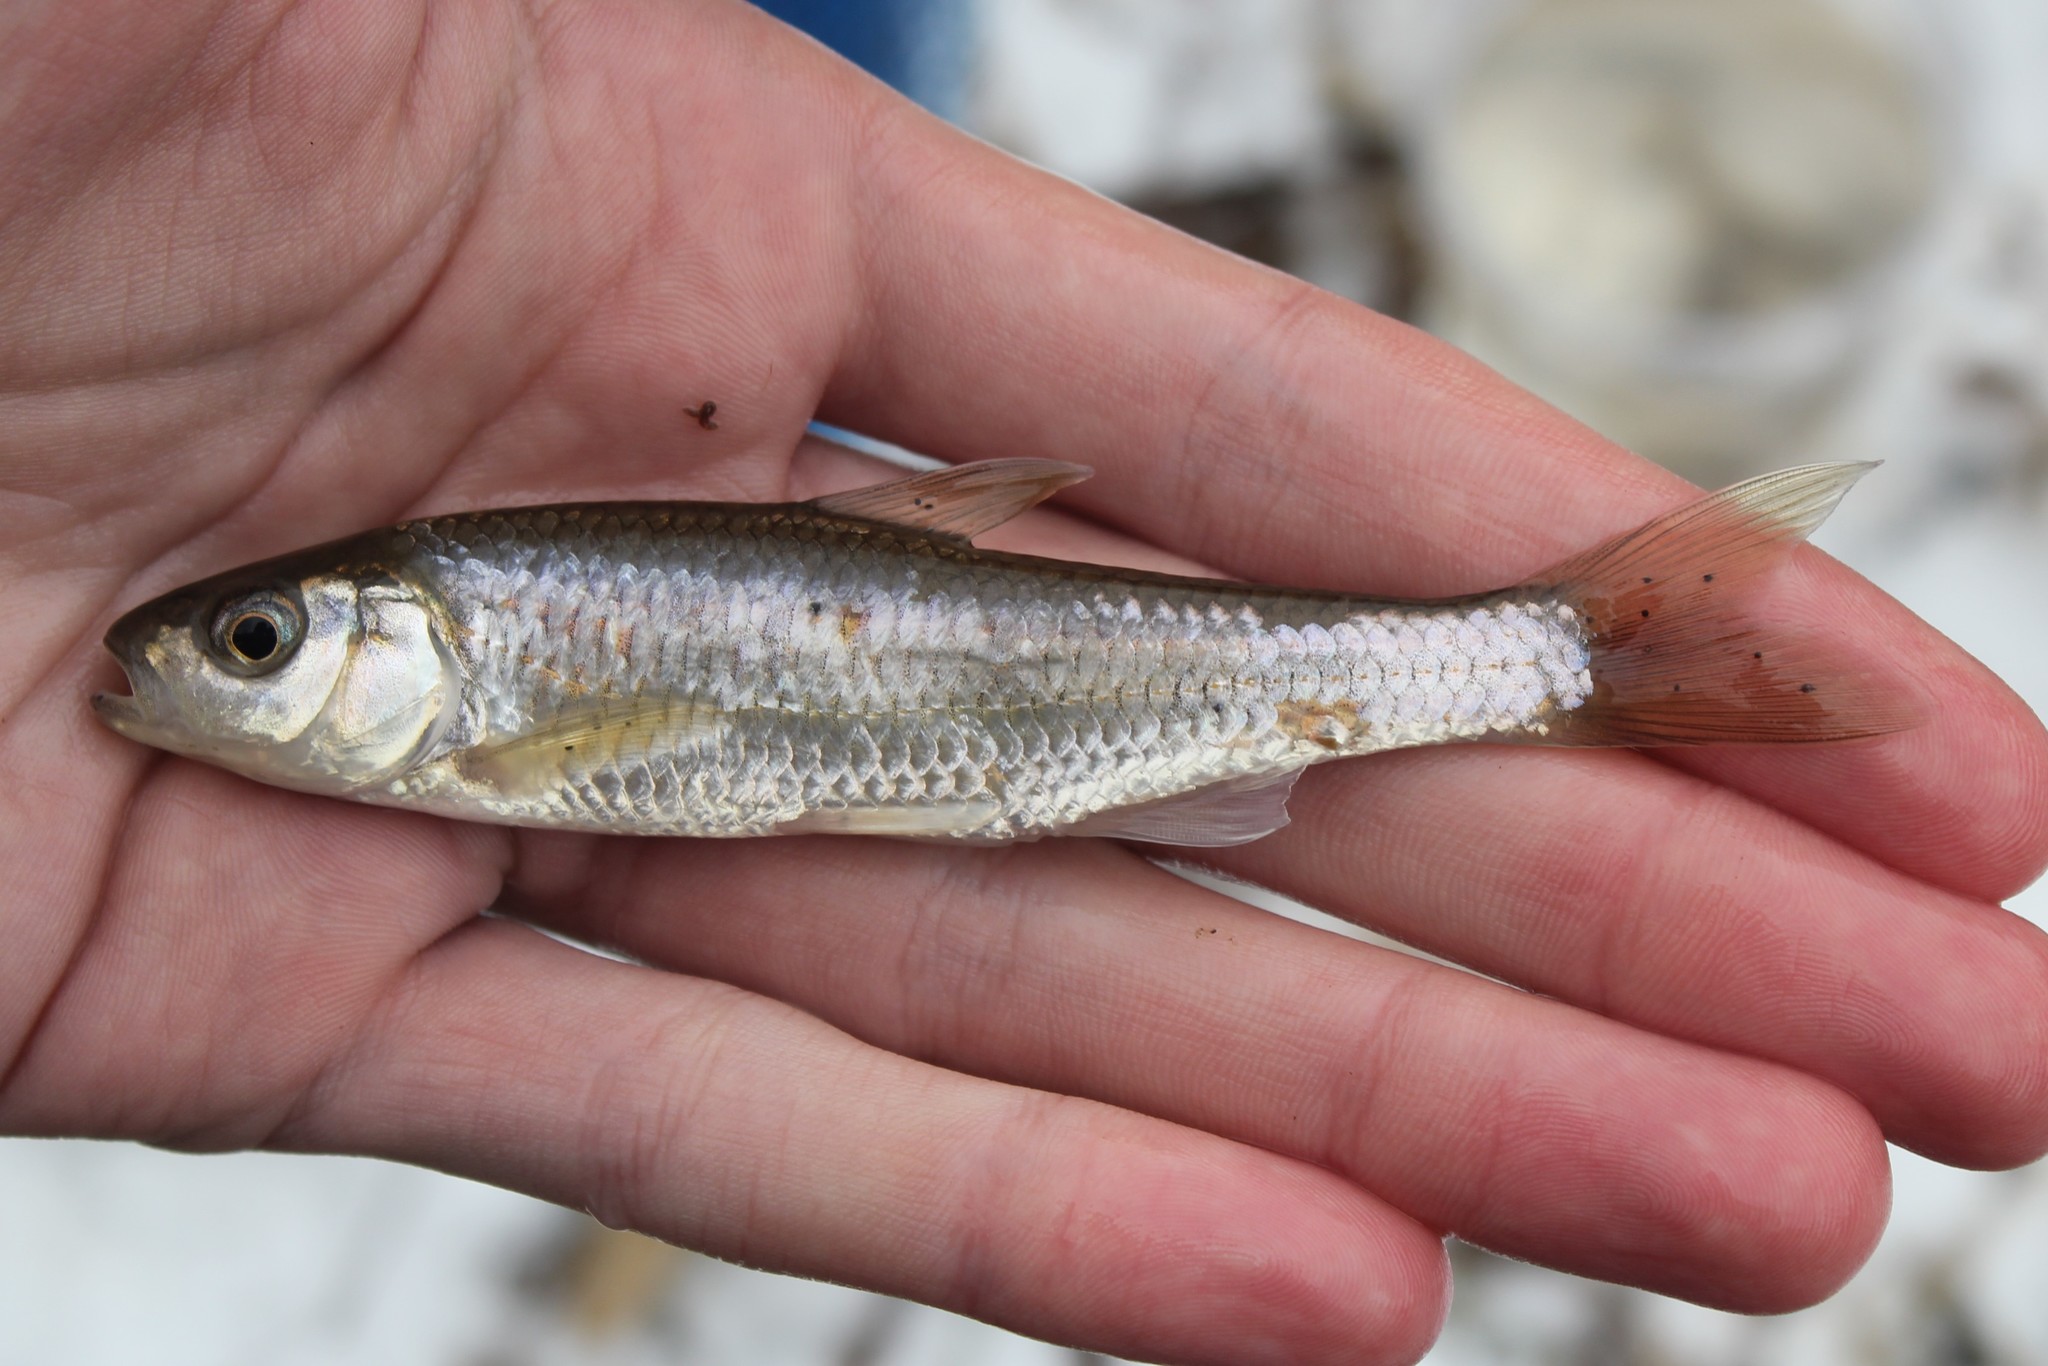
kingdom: Animalia
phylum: Chordata
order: Cypriniformes
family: Cyprinidae
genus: Luxilus
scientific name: Luxilus chrysocephalus
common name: Striped shiner
